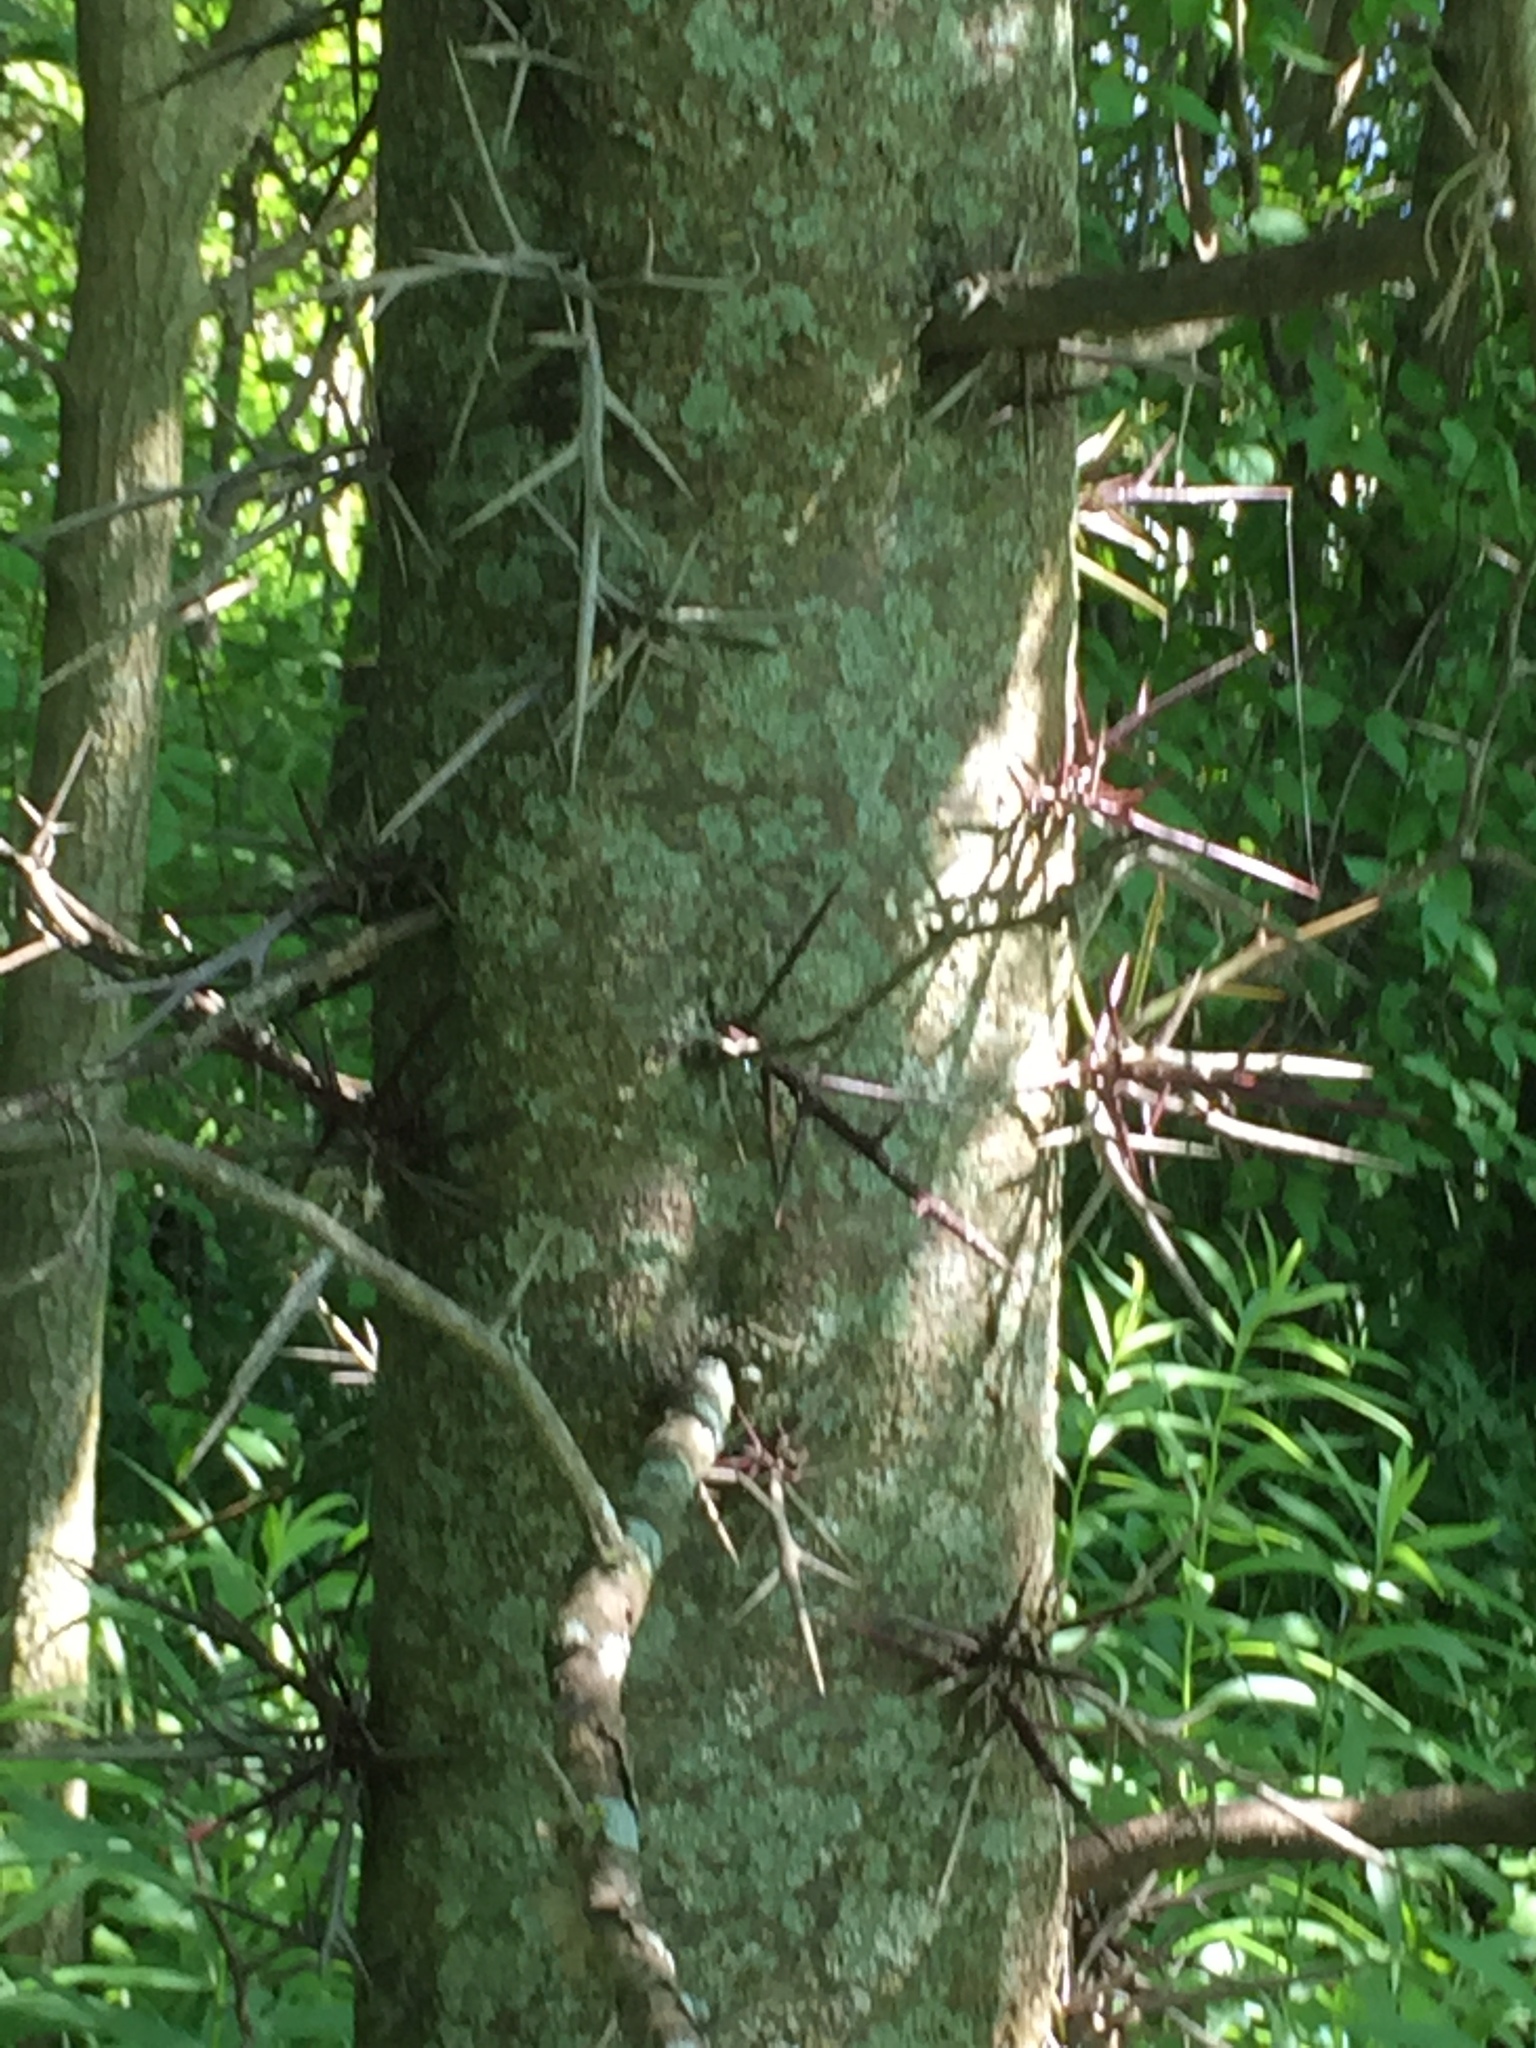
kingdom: Plantae
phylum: Tracheophyta
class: Magnoliopsida
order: Fabales
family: Fabaceae
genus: Gleditsia
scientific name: Gleditsia triacanthos
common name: Common honeylocust
